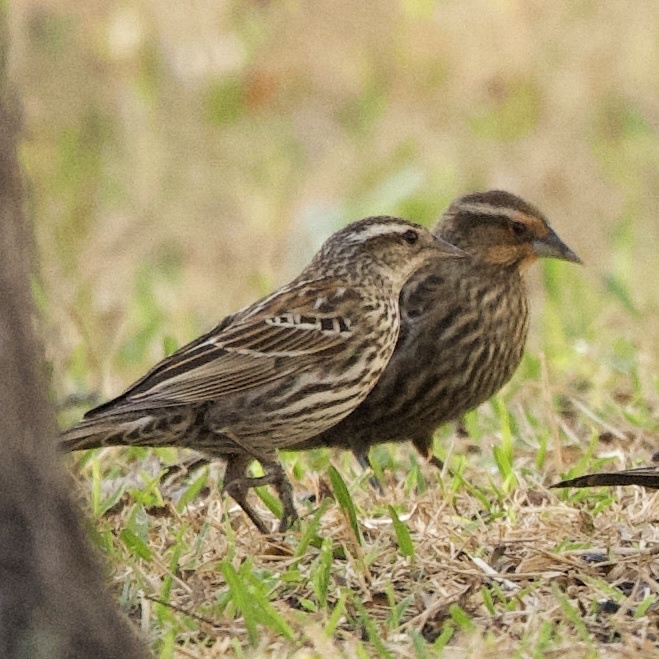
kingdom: Animalia
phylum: Chordata
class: Aves
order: Passeriformes
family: Icteridae
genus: Agelaius
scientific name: Agelaius phoeniceus
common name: Red-winged blackbird
